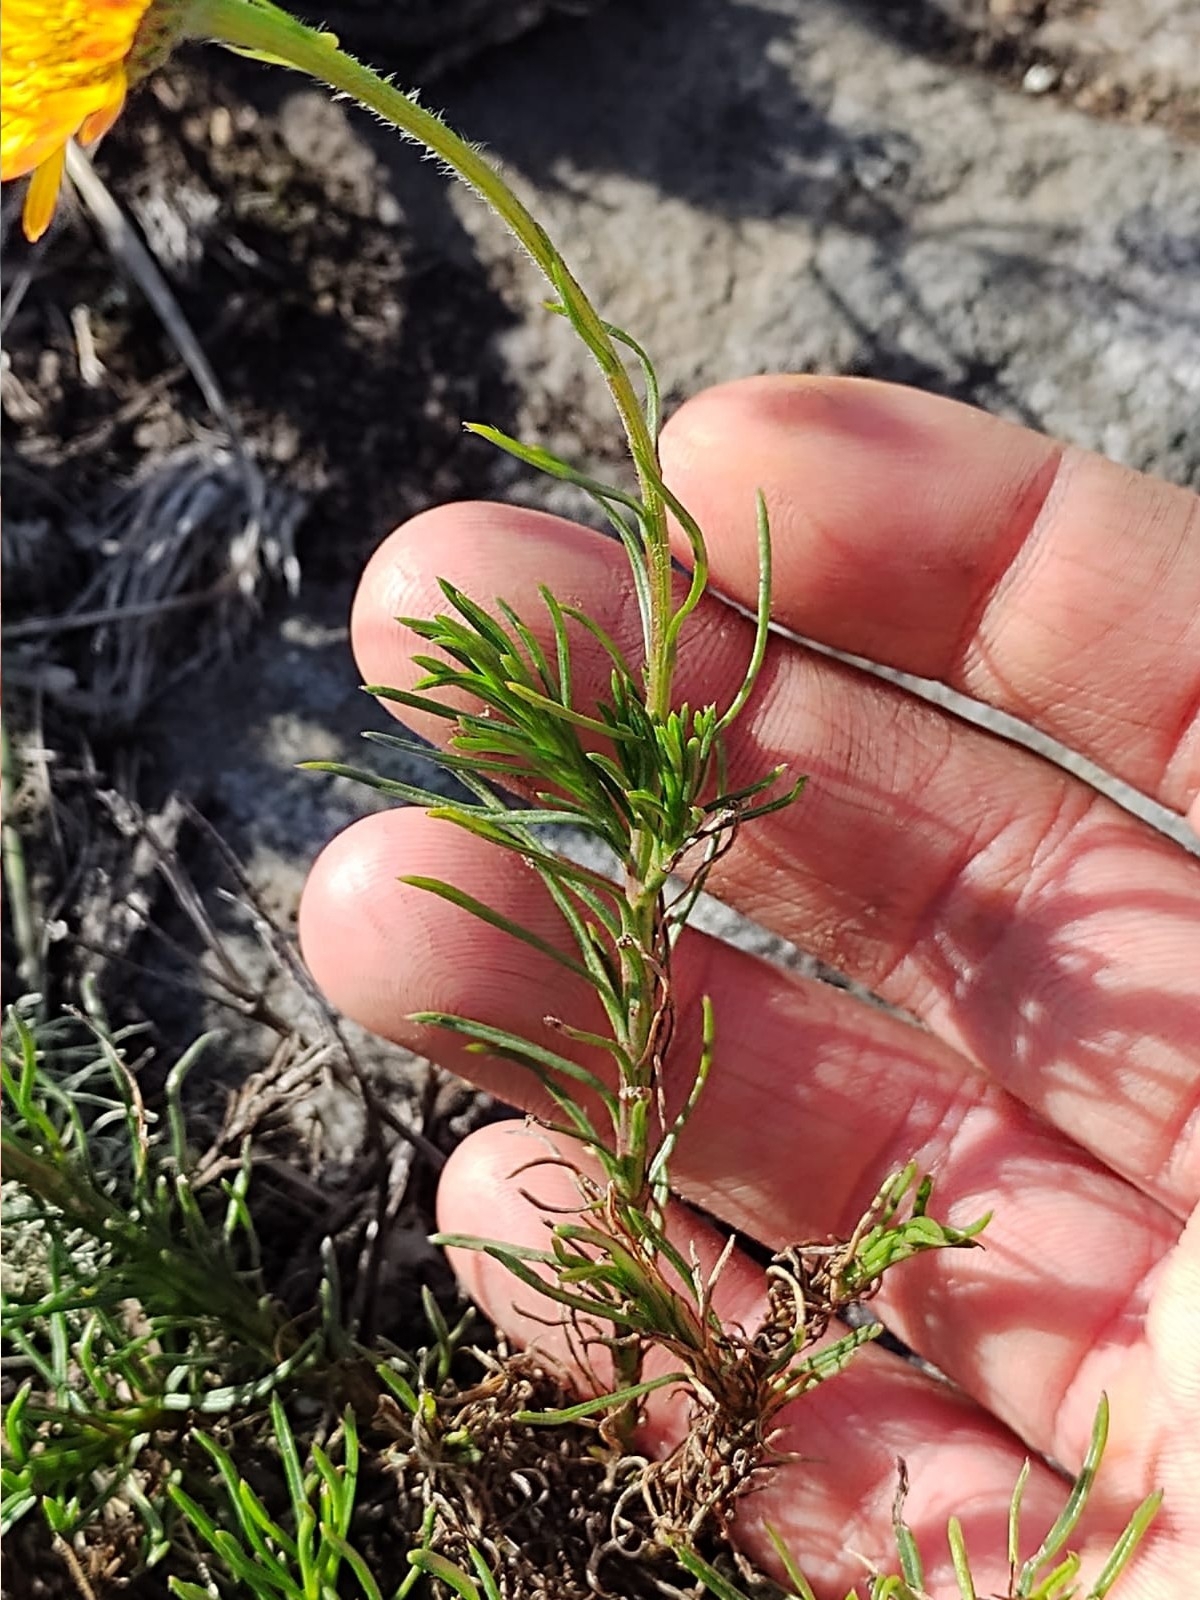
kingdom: Plantae
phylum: Tracheophyta
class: Magnoliopsida
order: Asterales
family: Asteraceae
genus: Neja
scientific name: Neja pinifolia
